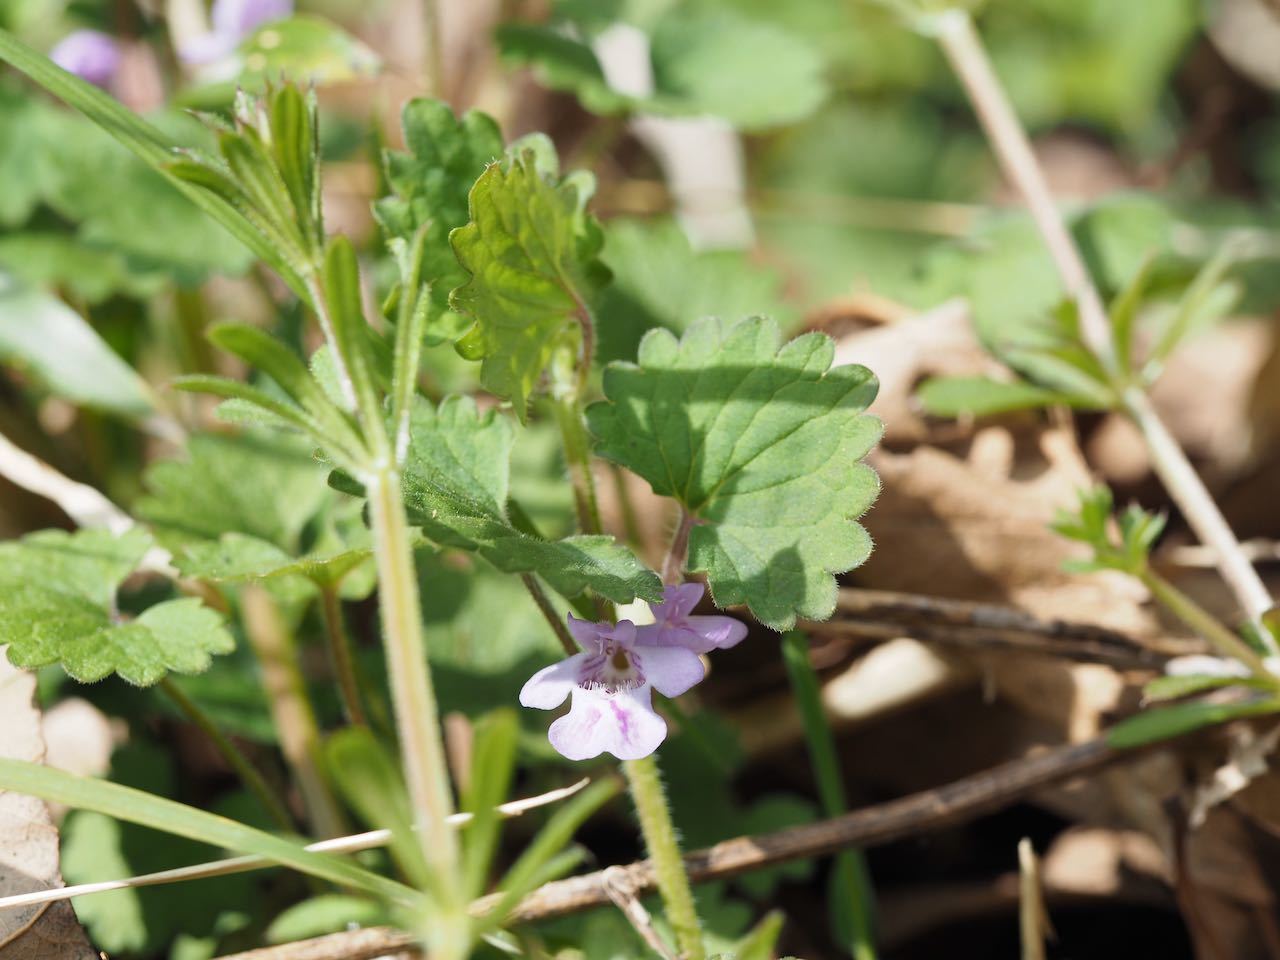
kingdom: Plantae
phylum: Tracheophyta
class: Magnoliopsida
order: Lamiales
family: Lamiaceae
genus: Glechoma
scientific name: Glechoma grandis
